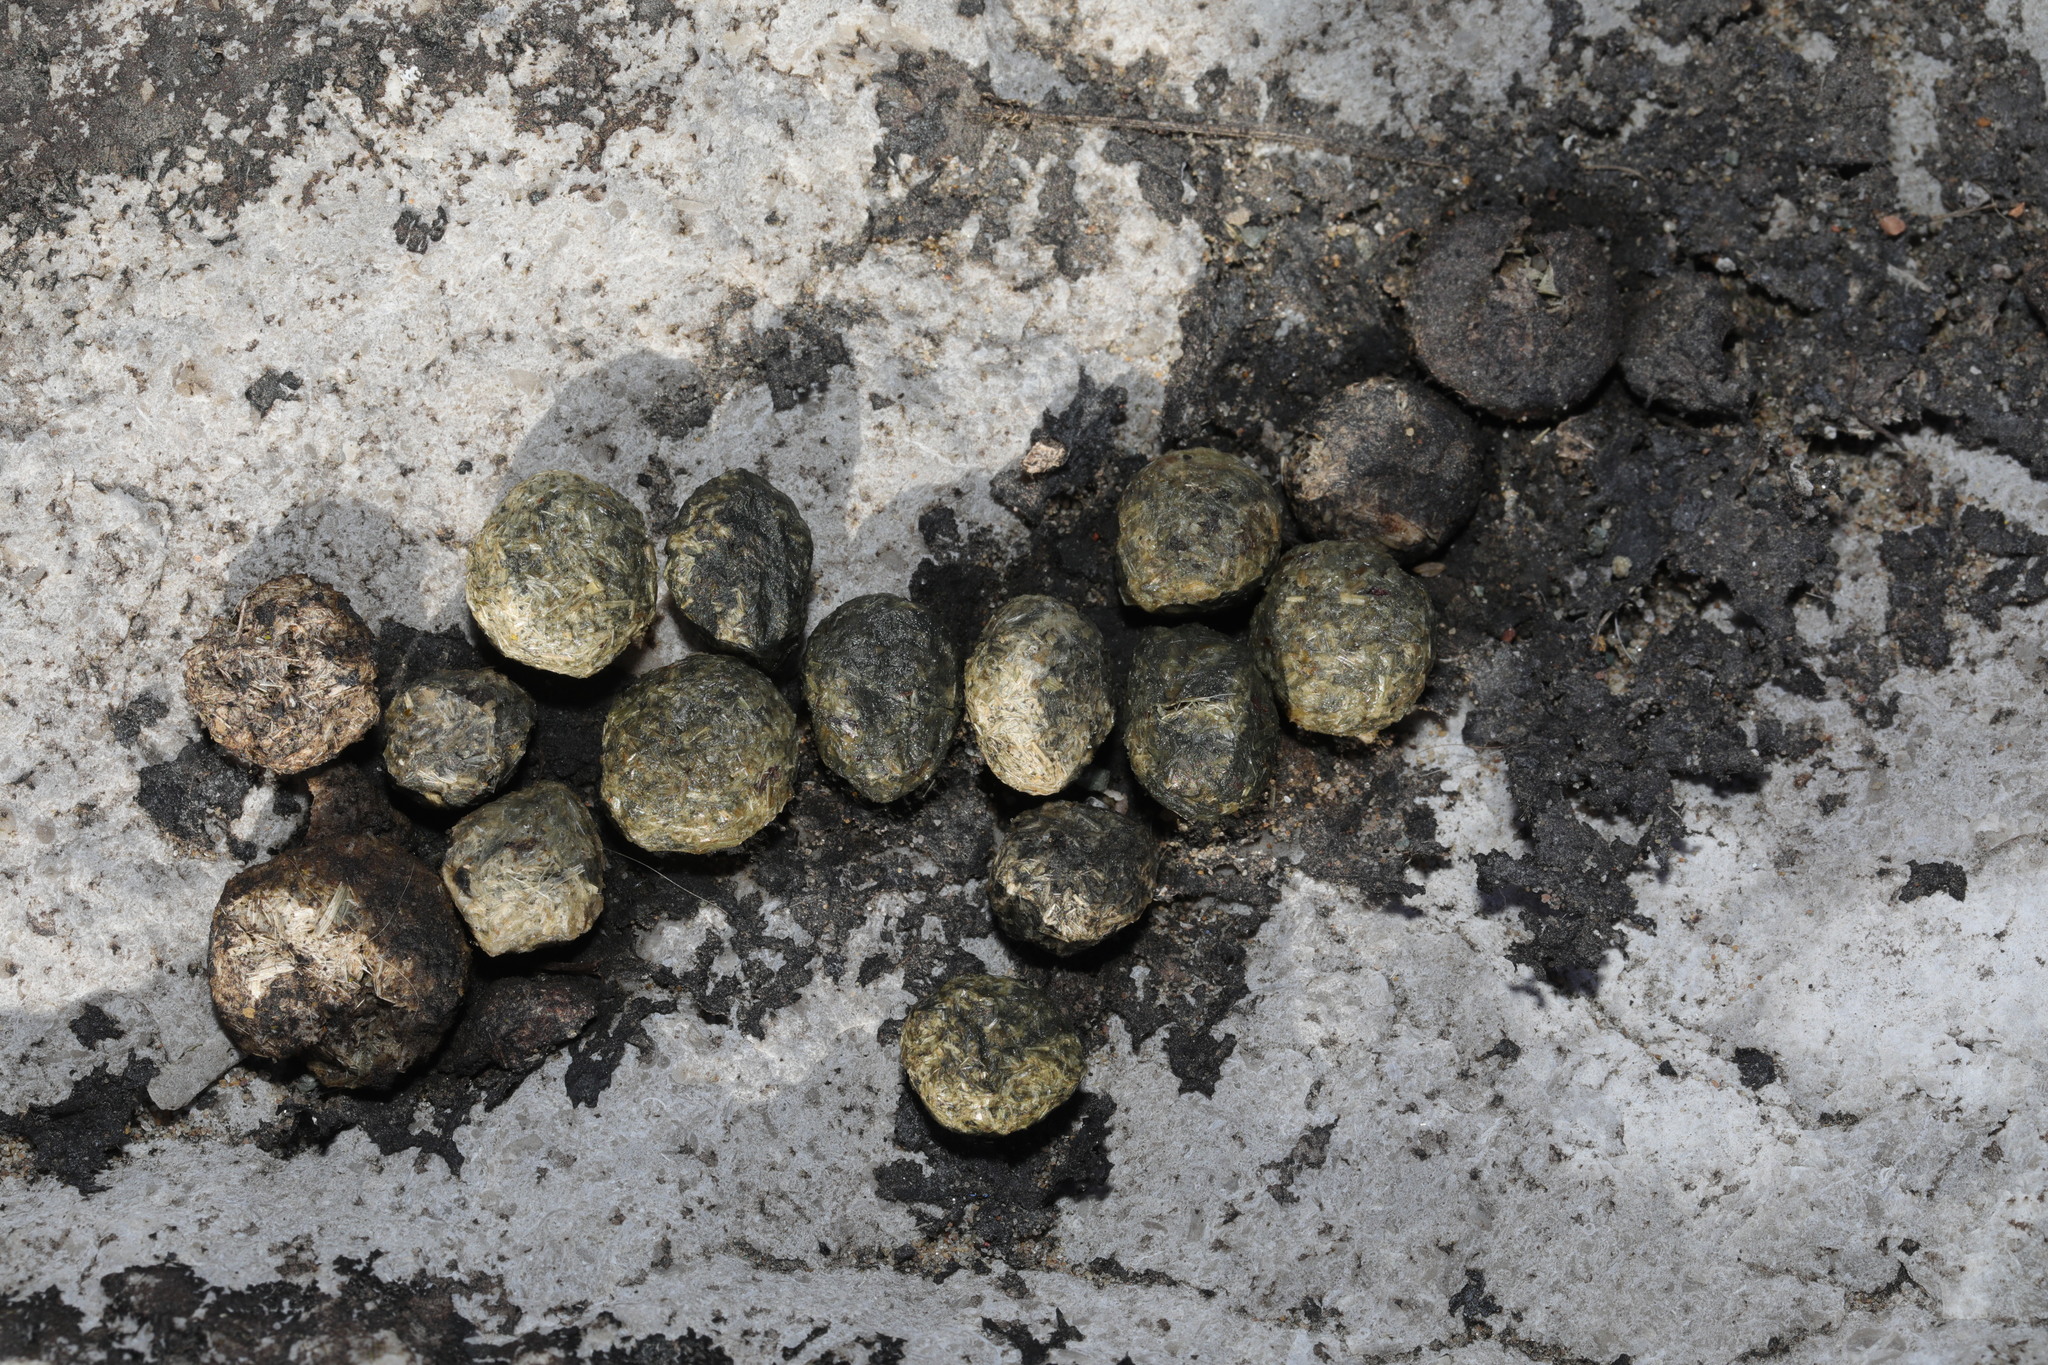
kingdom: Animalia
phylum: Chordata
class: Mammalia
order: Lagomorpha
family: Leporidae
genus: Oryctolagus
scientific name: Oryctolagus cuniculus
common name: European rabbit
